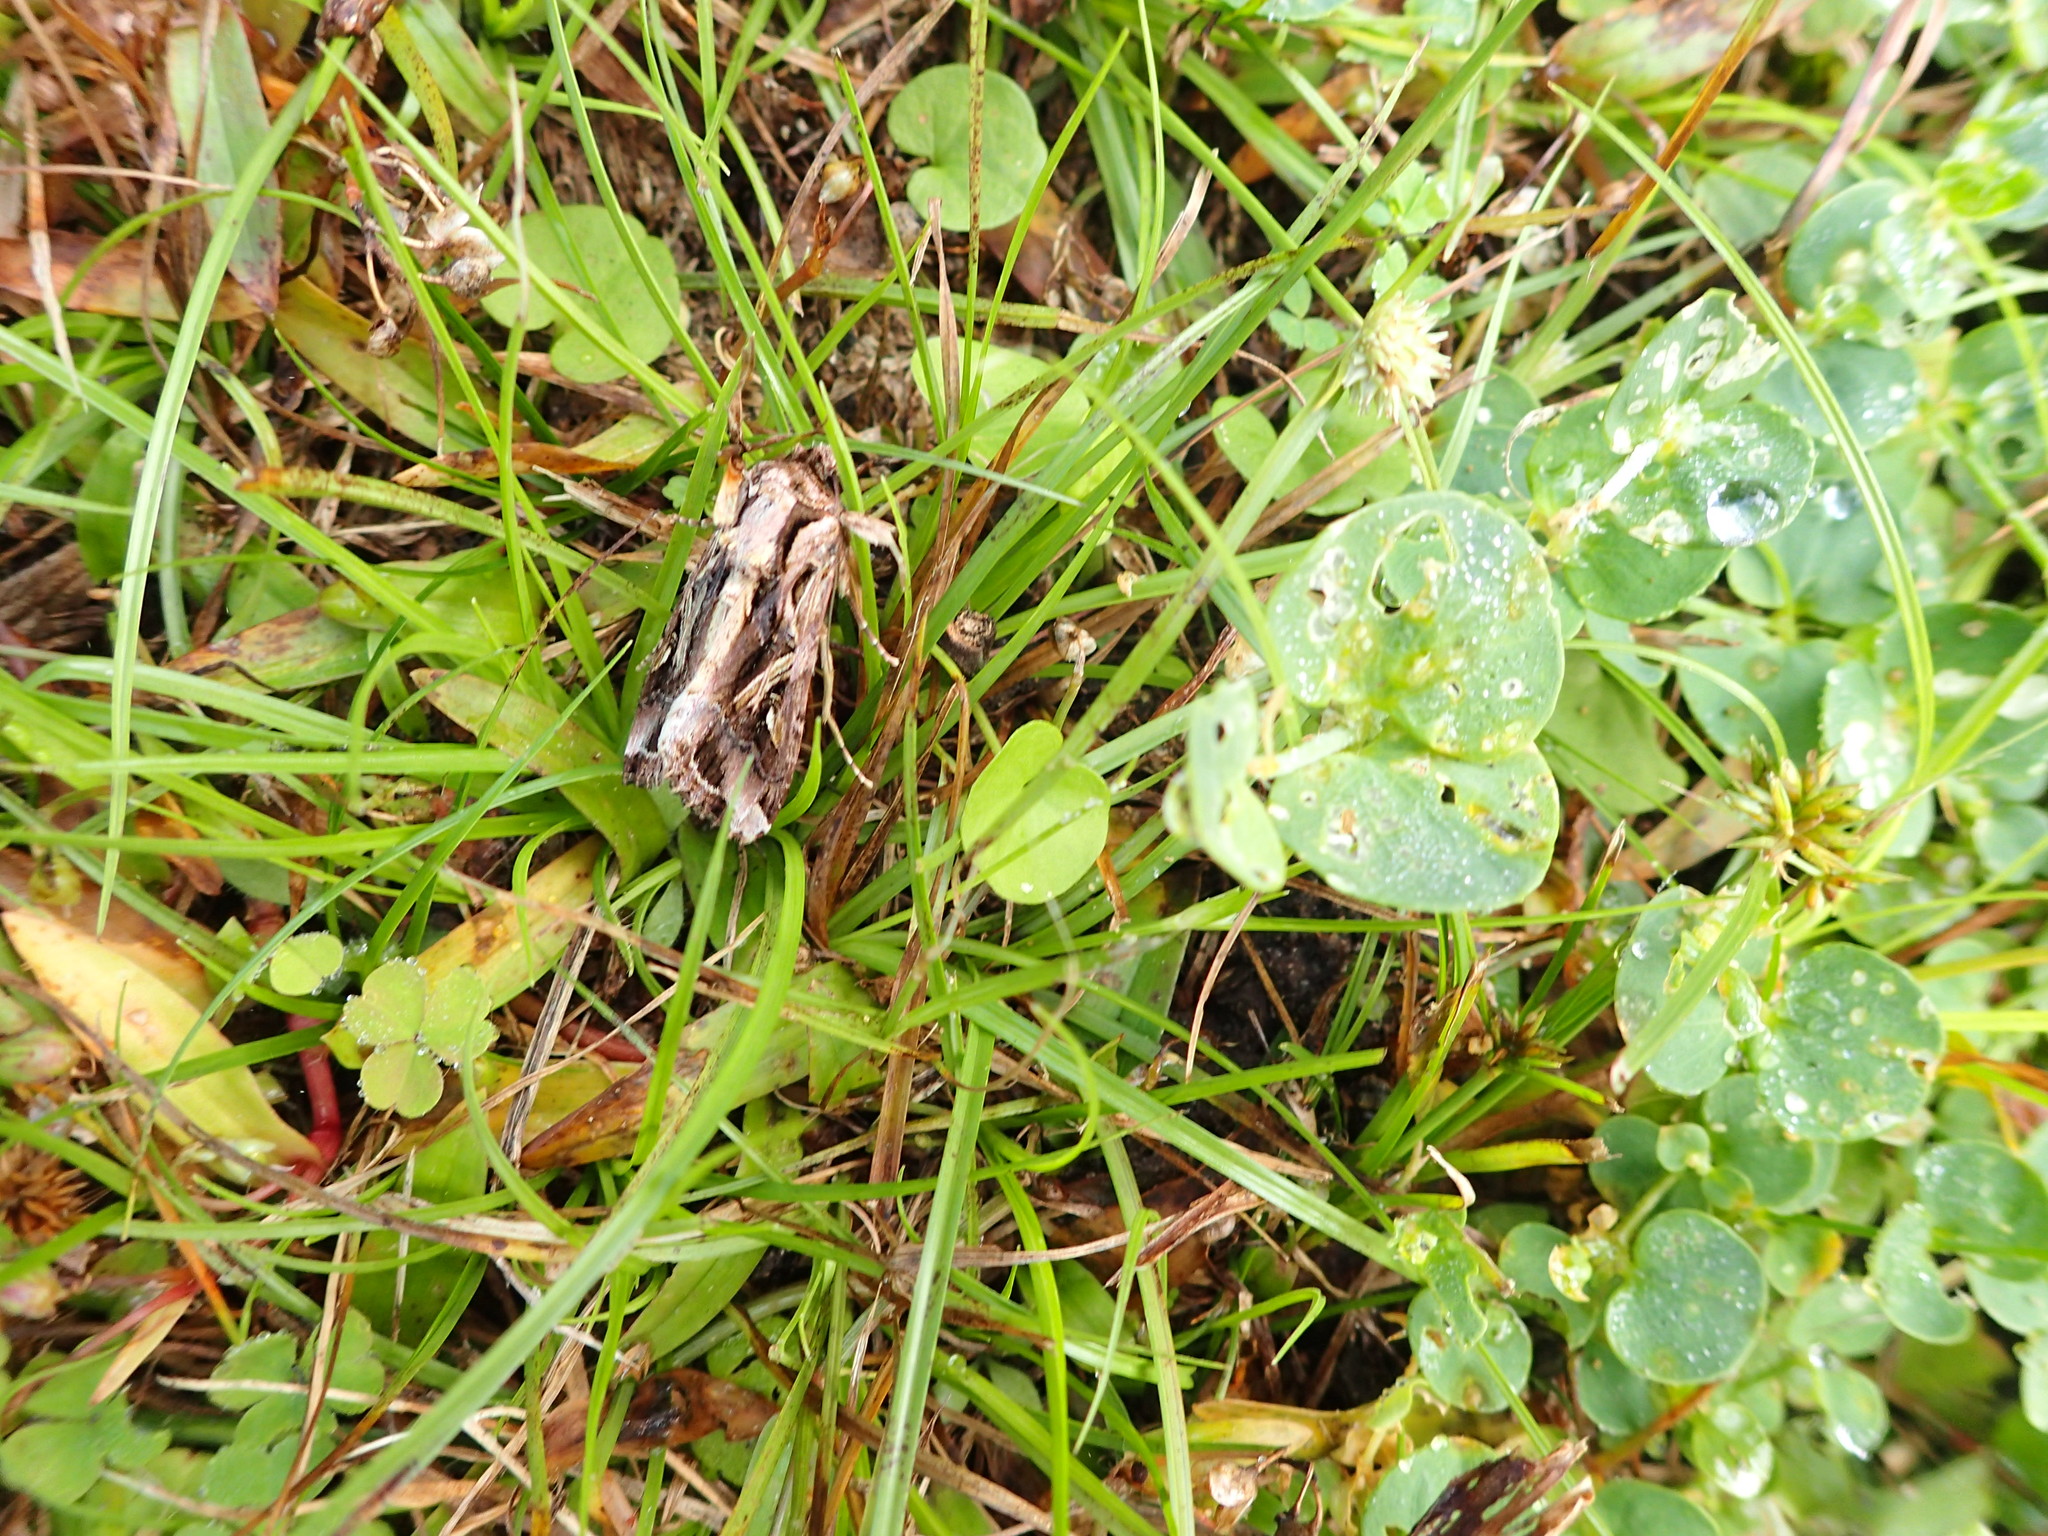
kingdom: Animalia
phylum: Arthropoda
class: Insecta
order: Lepidoptera
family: Noctuidae
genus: Spodoptera
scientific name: Spodoptera dolichos
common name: Sweetpotato armyworm
